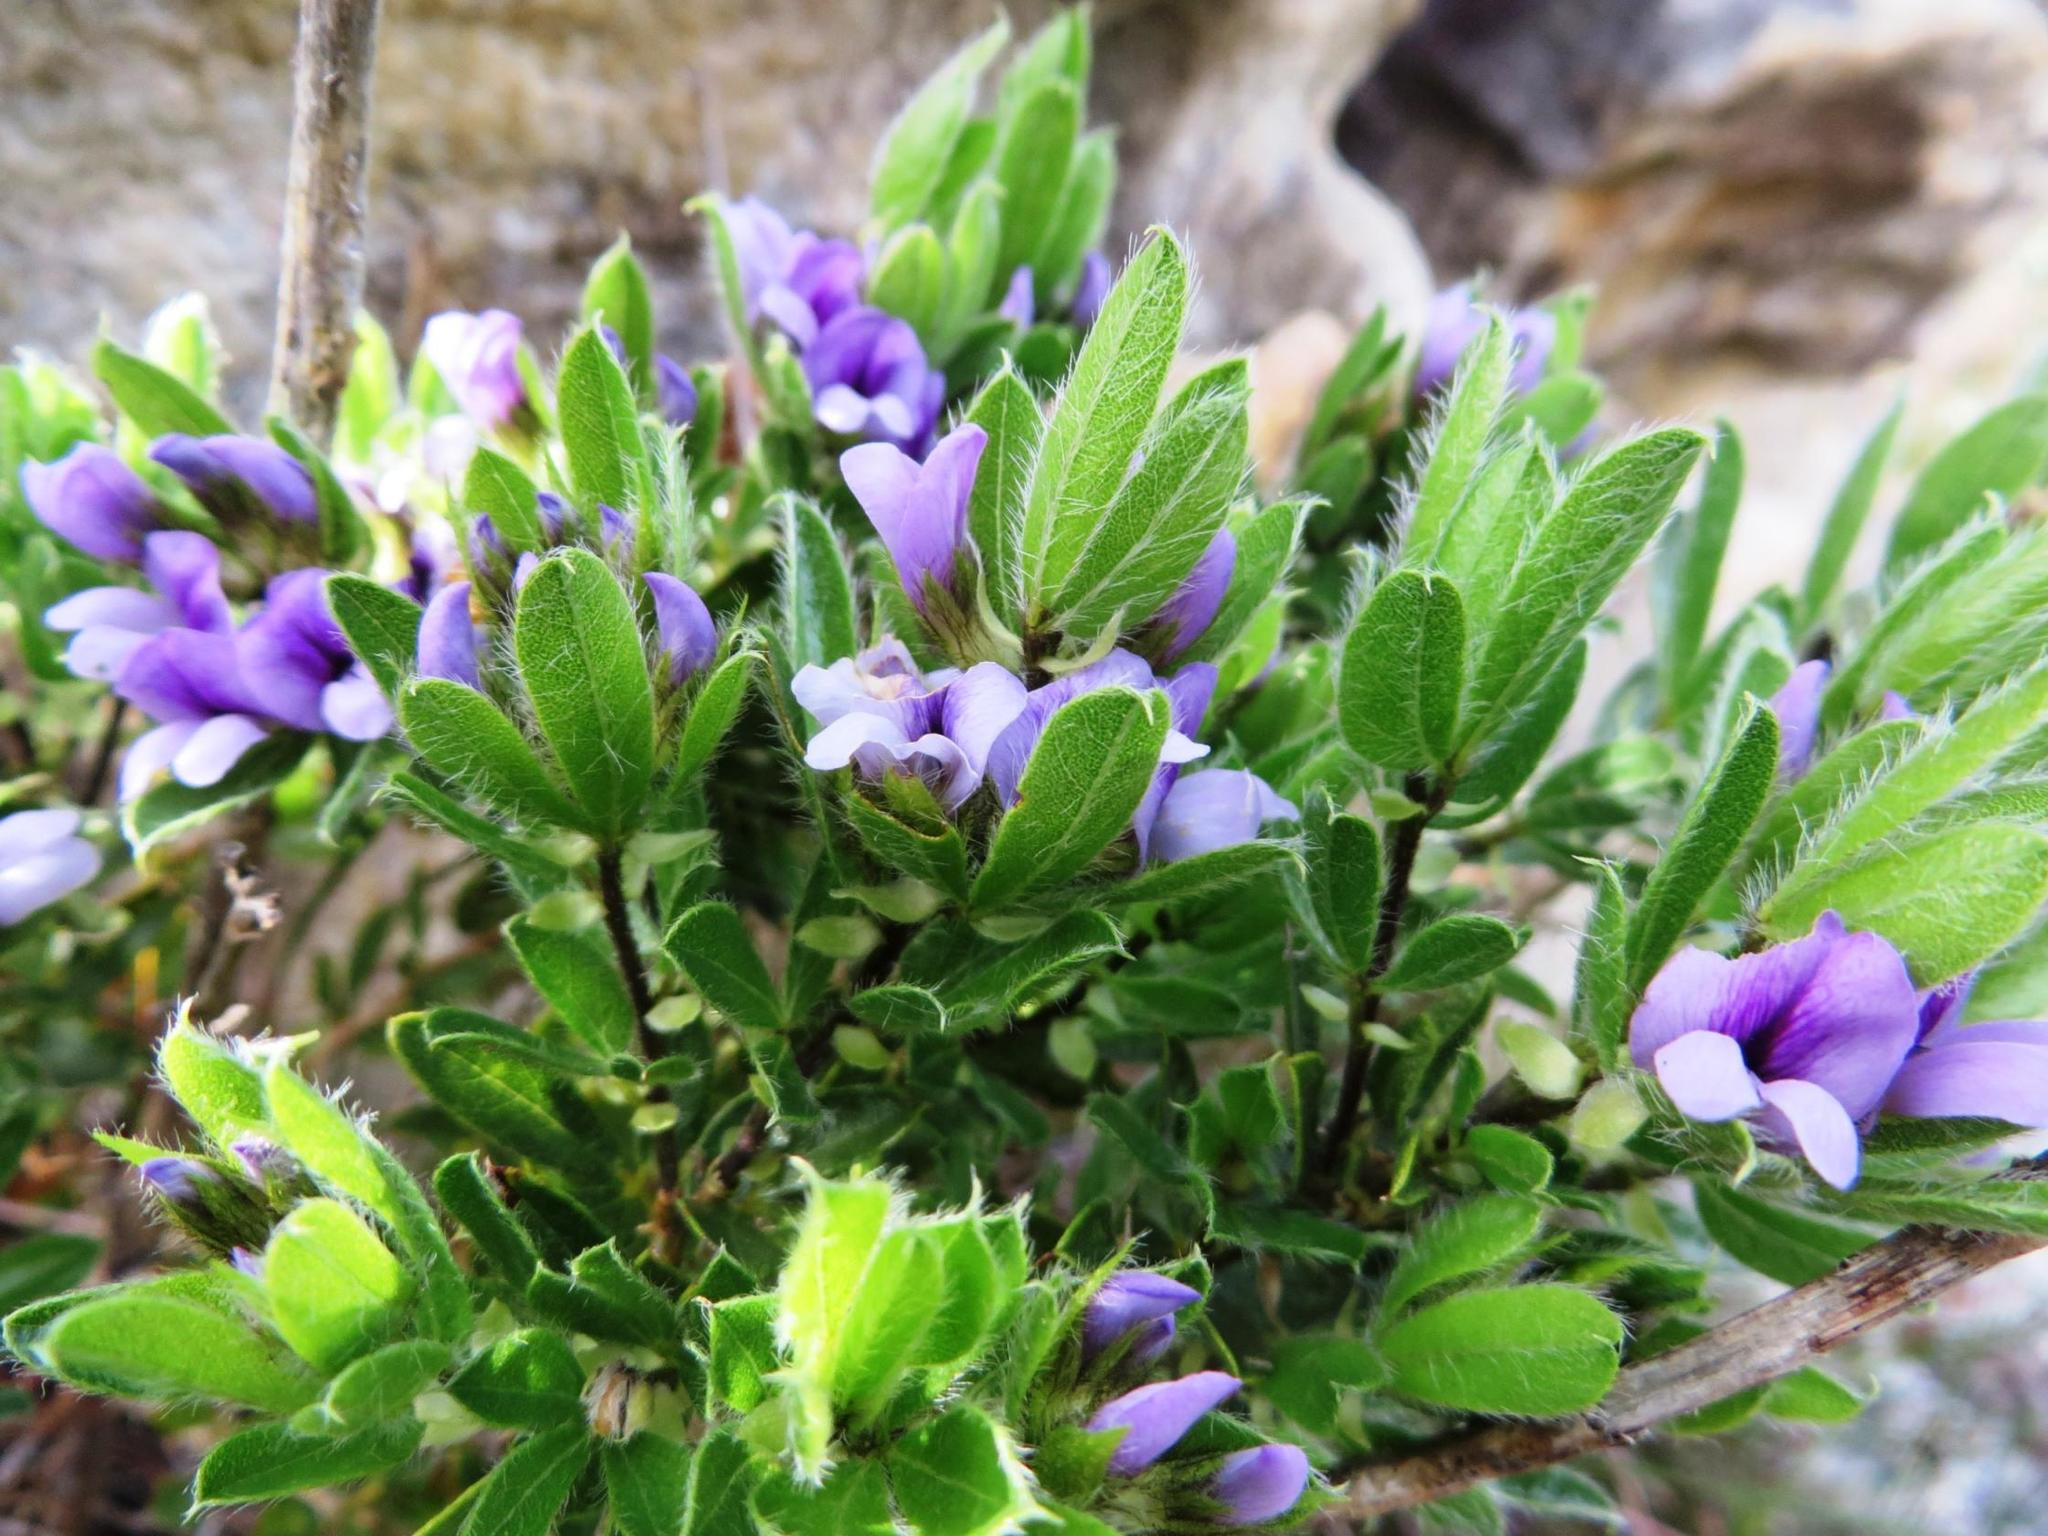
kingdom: Plantae
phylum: Tracheophyta
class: Magnoliopsida
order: Fabales
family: Fabaceae
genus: Psoralea
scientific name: Psoralea obliqua
